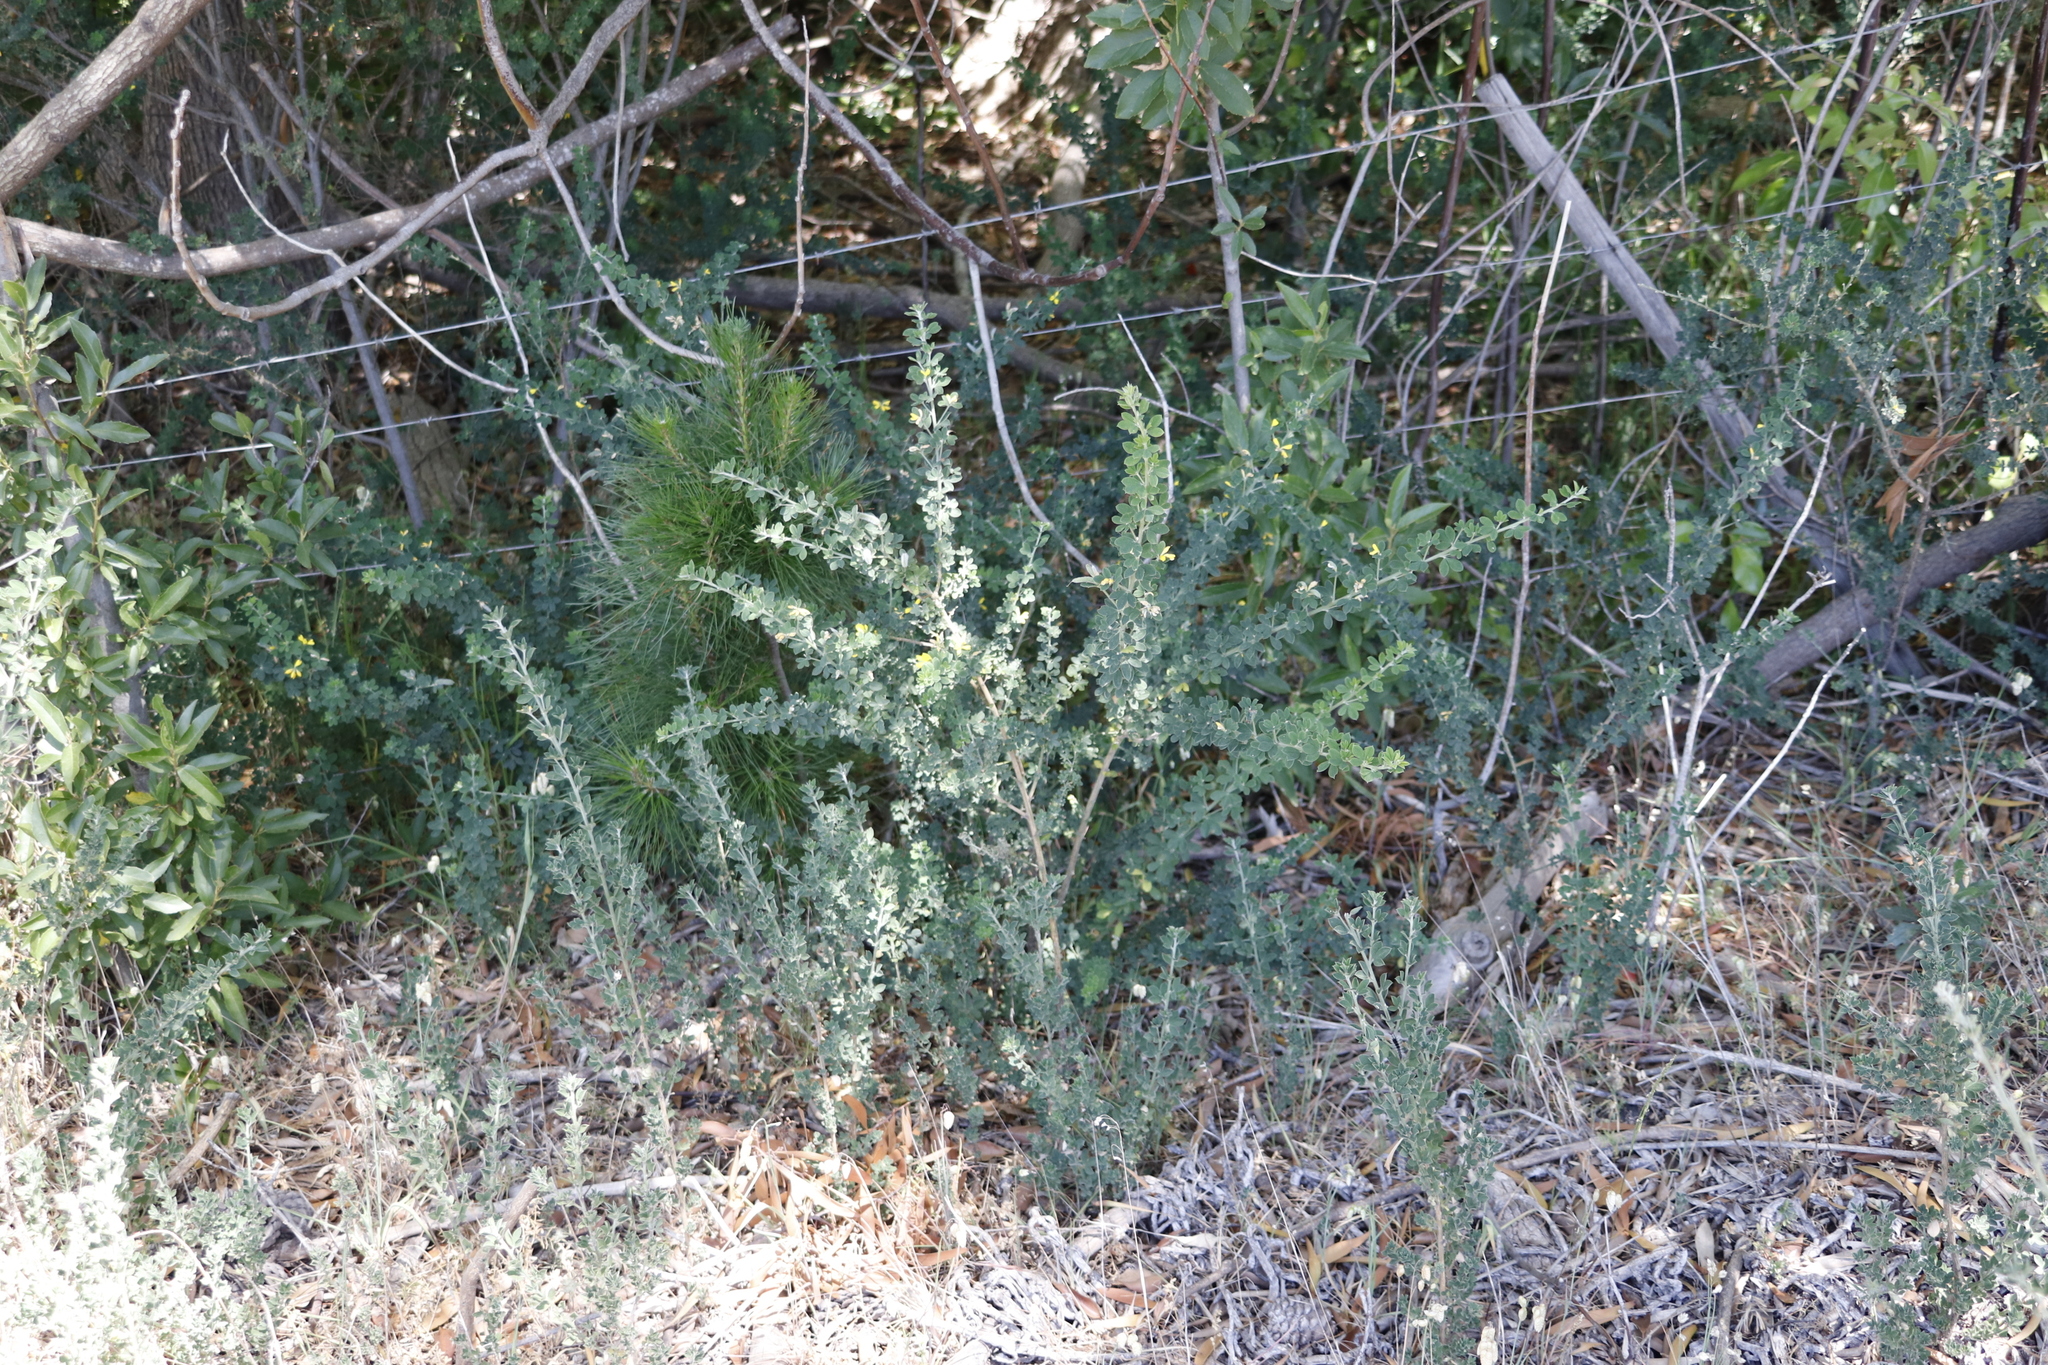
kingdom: Plantae
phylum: Tracheophyta
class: Magnoliopsida
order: Fabales
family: Fabaceae
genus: Genista
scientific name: Genista monspessulana
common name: Montpellier broom
